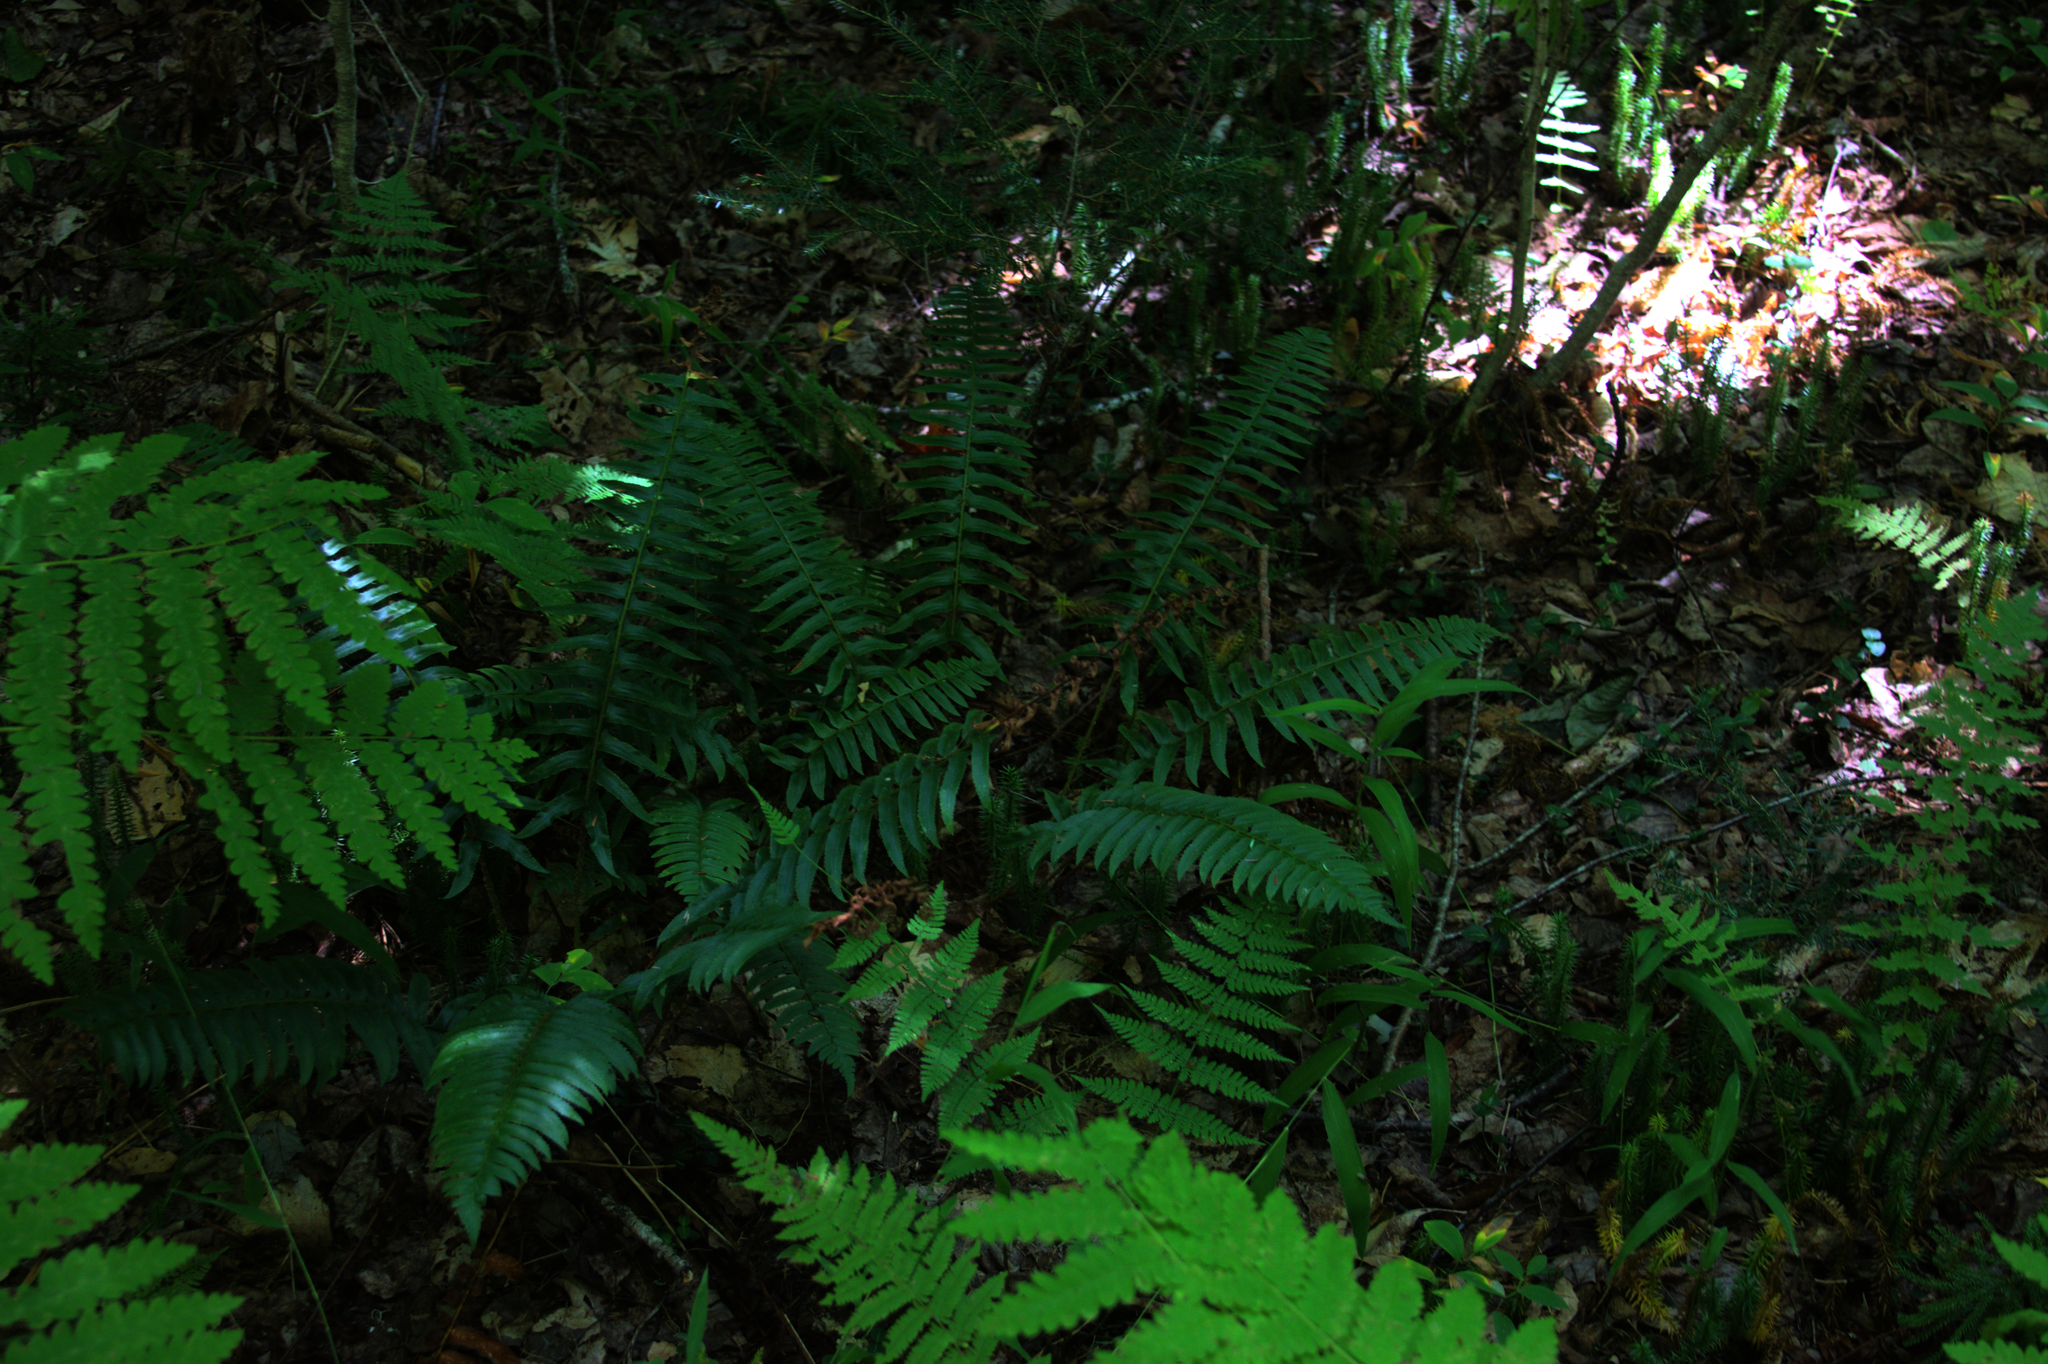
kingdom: Plantae
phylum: Tracheophyta
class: Polypodiopsida
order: Polypodiales
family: Dryopteridaceae
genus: Polystichum
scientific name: Polystichum acrostichoides
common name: Christmas fern
